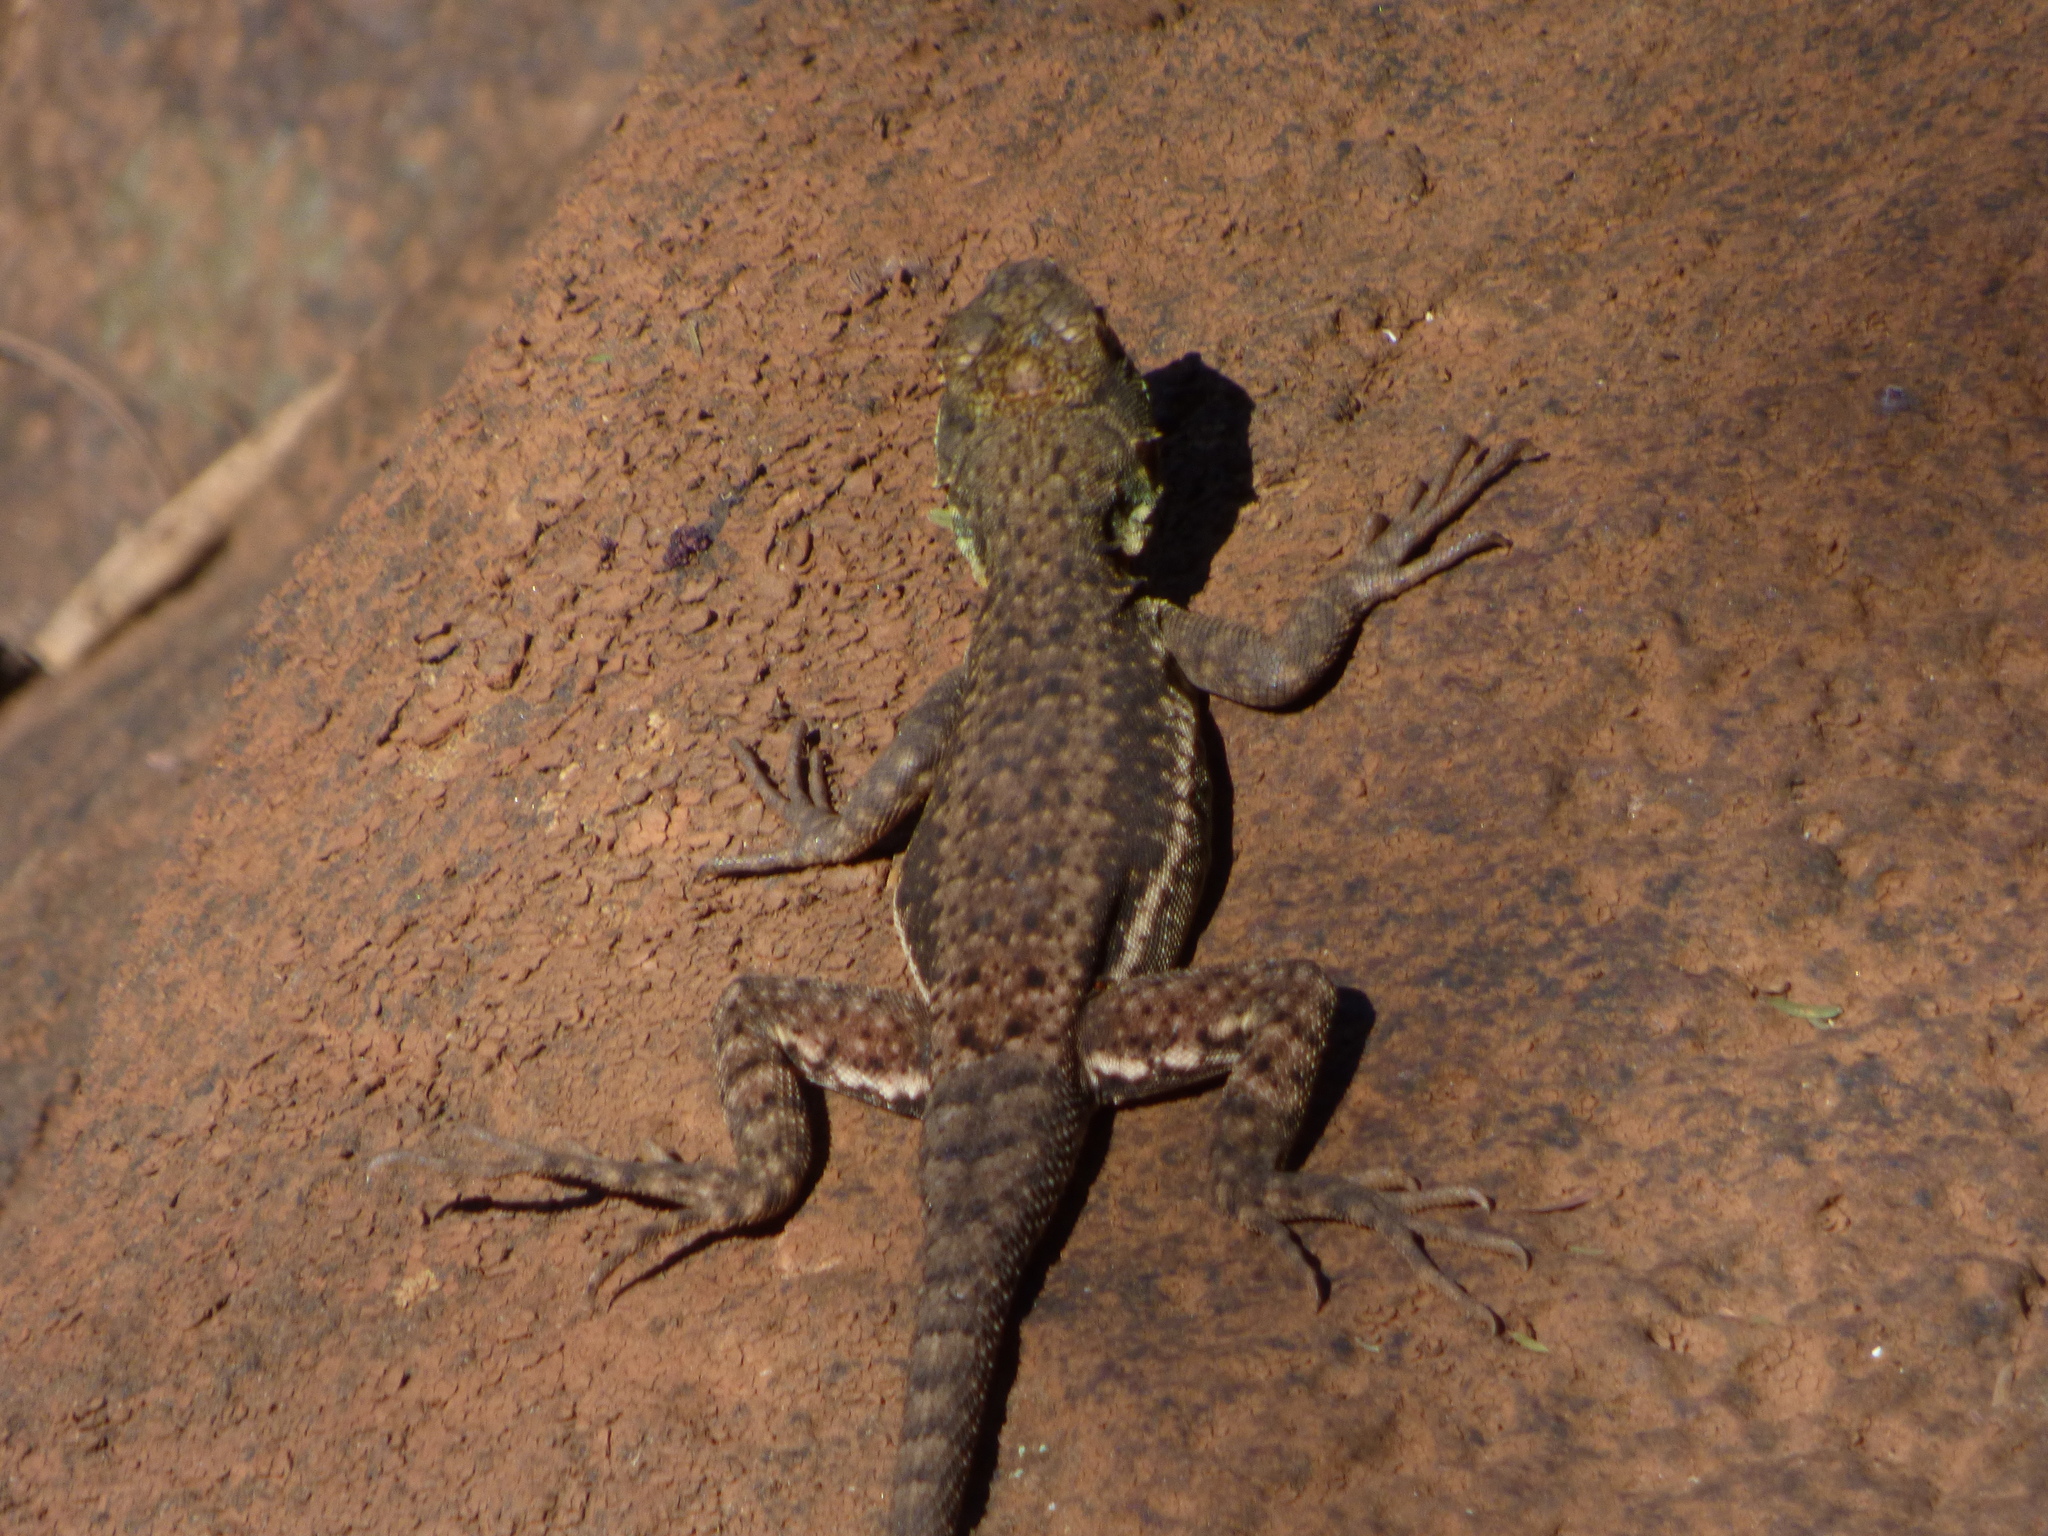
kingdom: Animalia
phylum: Chordata
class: Squamata
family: Tropiduridae
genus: Tropidurus
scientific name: Tropidurus catalanensis
